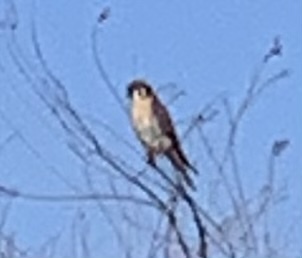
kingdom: Animalia
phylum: Chordata
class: Aves
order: Falconiformes
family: Falconidae
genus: Falco
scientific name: Falco sparverius
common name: American kestrel
